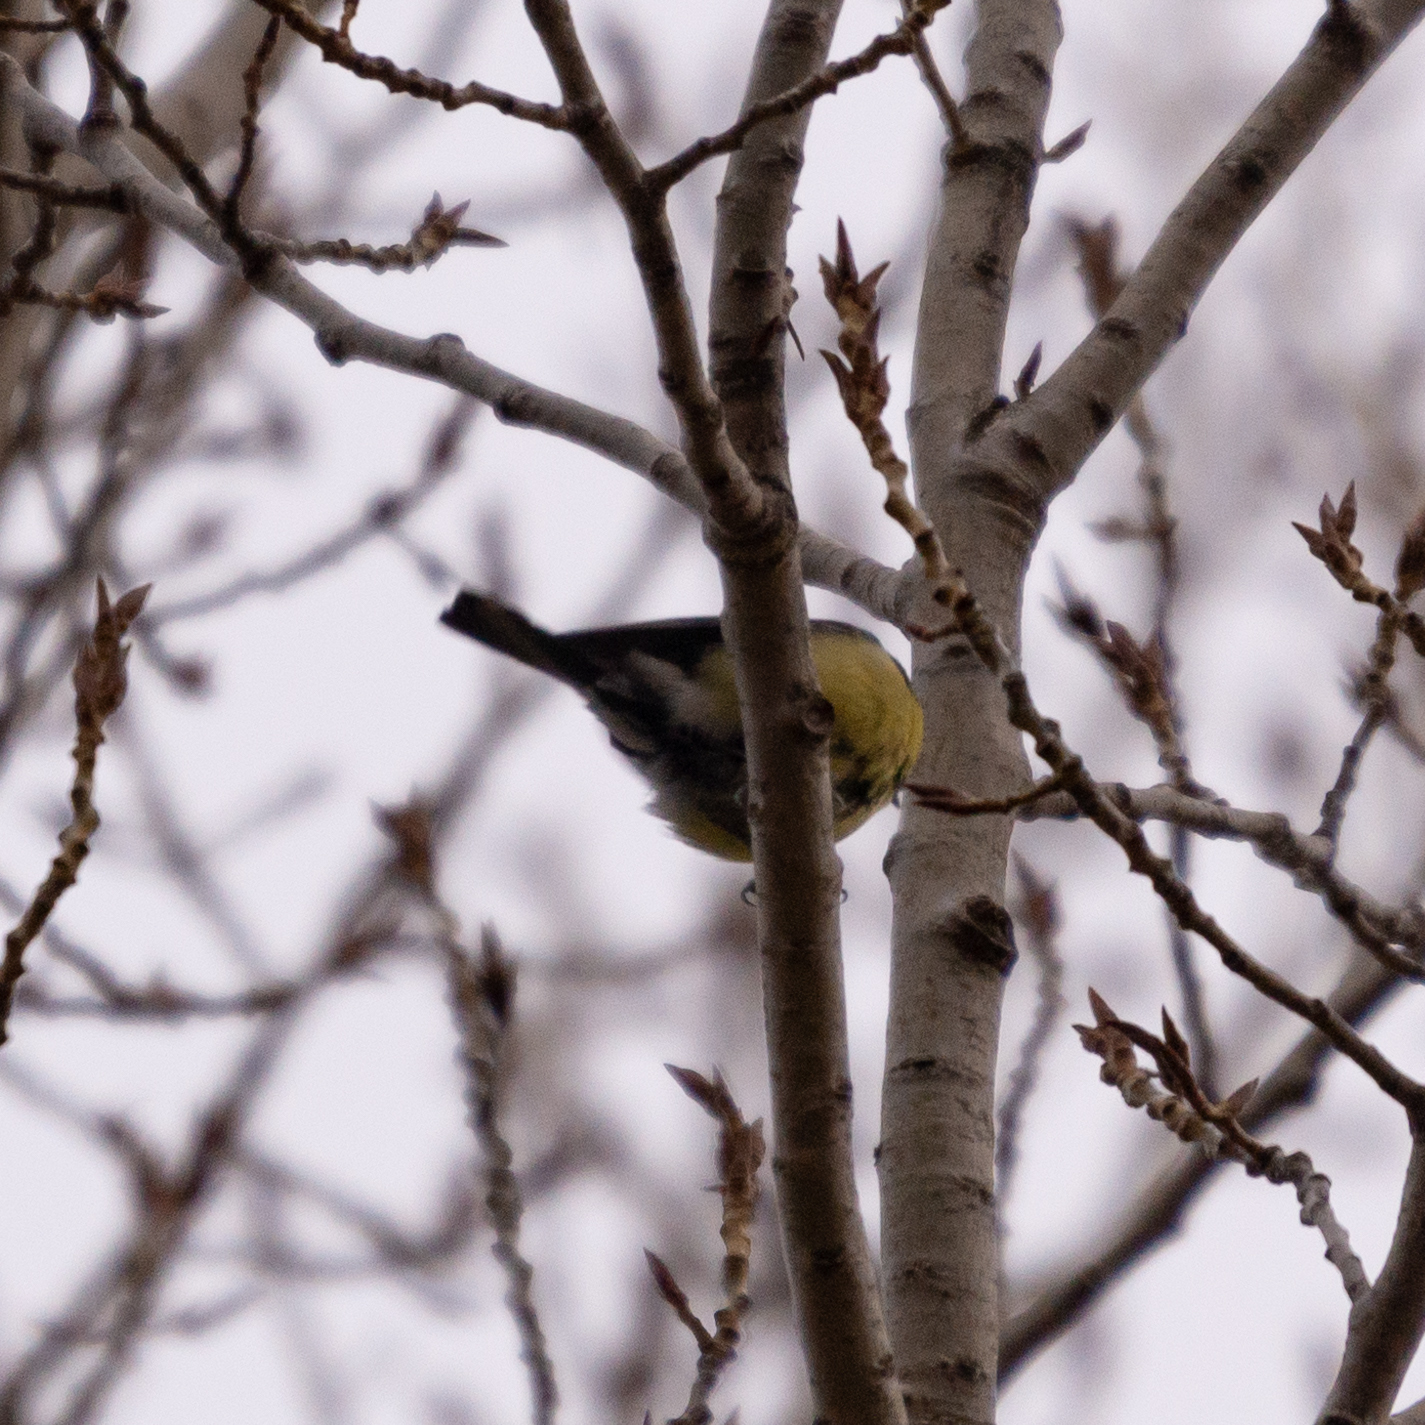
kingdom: Animalia
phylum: Chordata
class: Aves
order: Passeriformes
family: Paridae
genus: Parus
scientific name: Parus major
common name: Great tit
